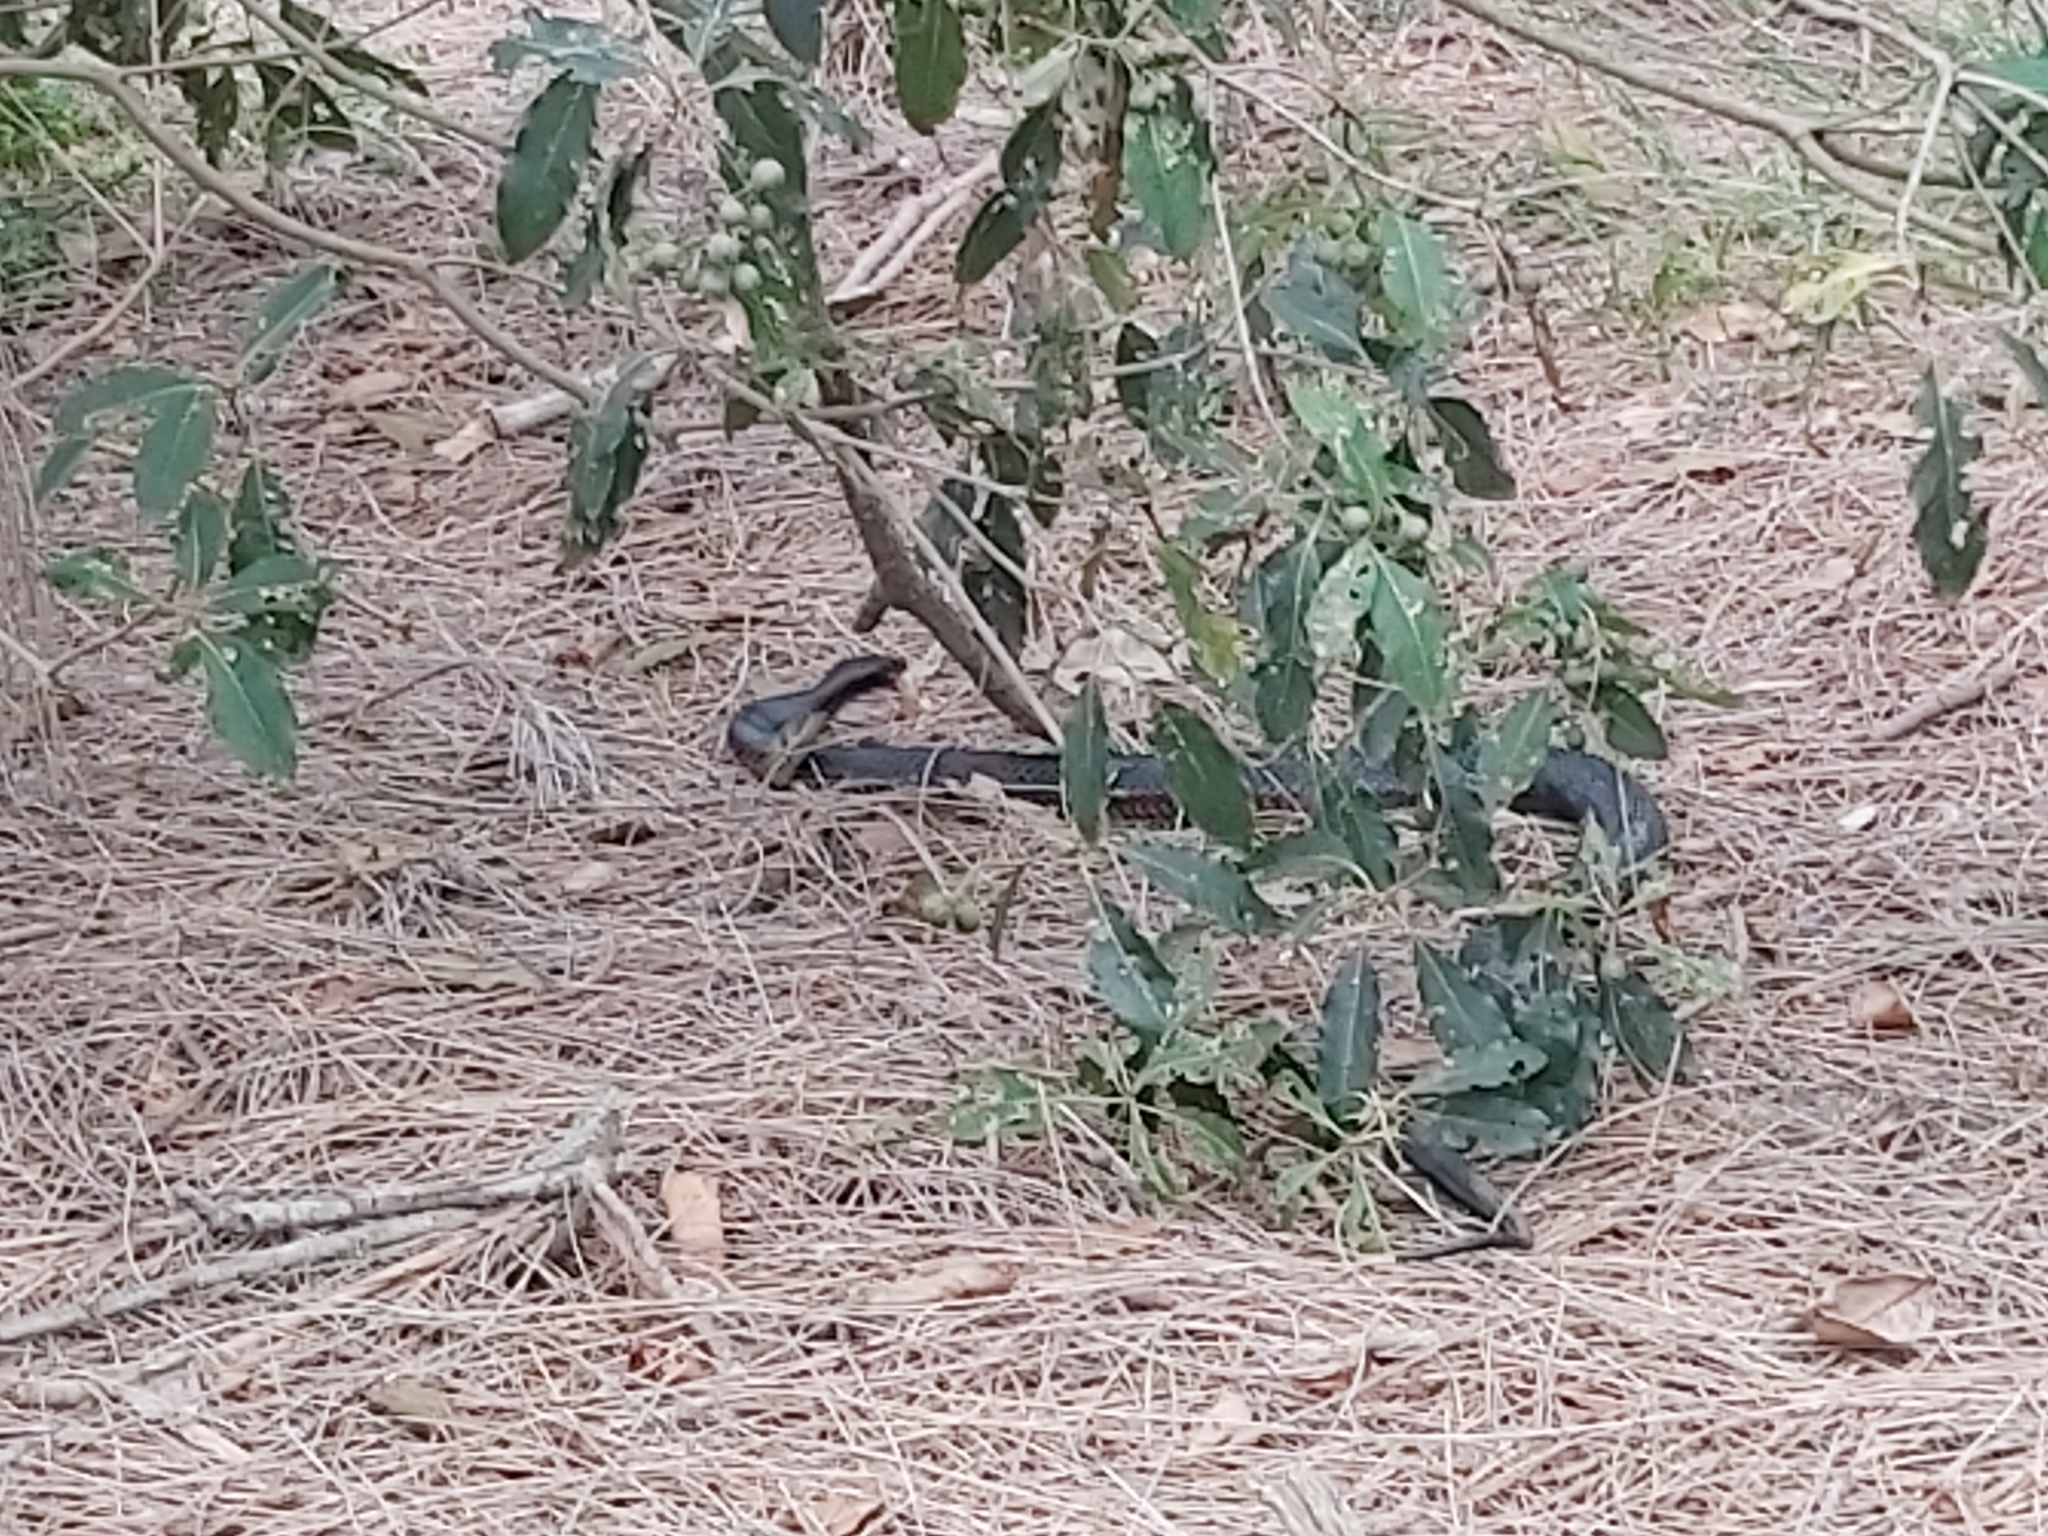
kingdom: Animalia
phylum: Chordata
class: Squamata
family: Elapidae
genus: Pseudechis
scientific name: Pseudechis porphyriacus
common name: Australian black snake
